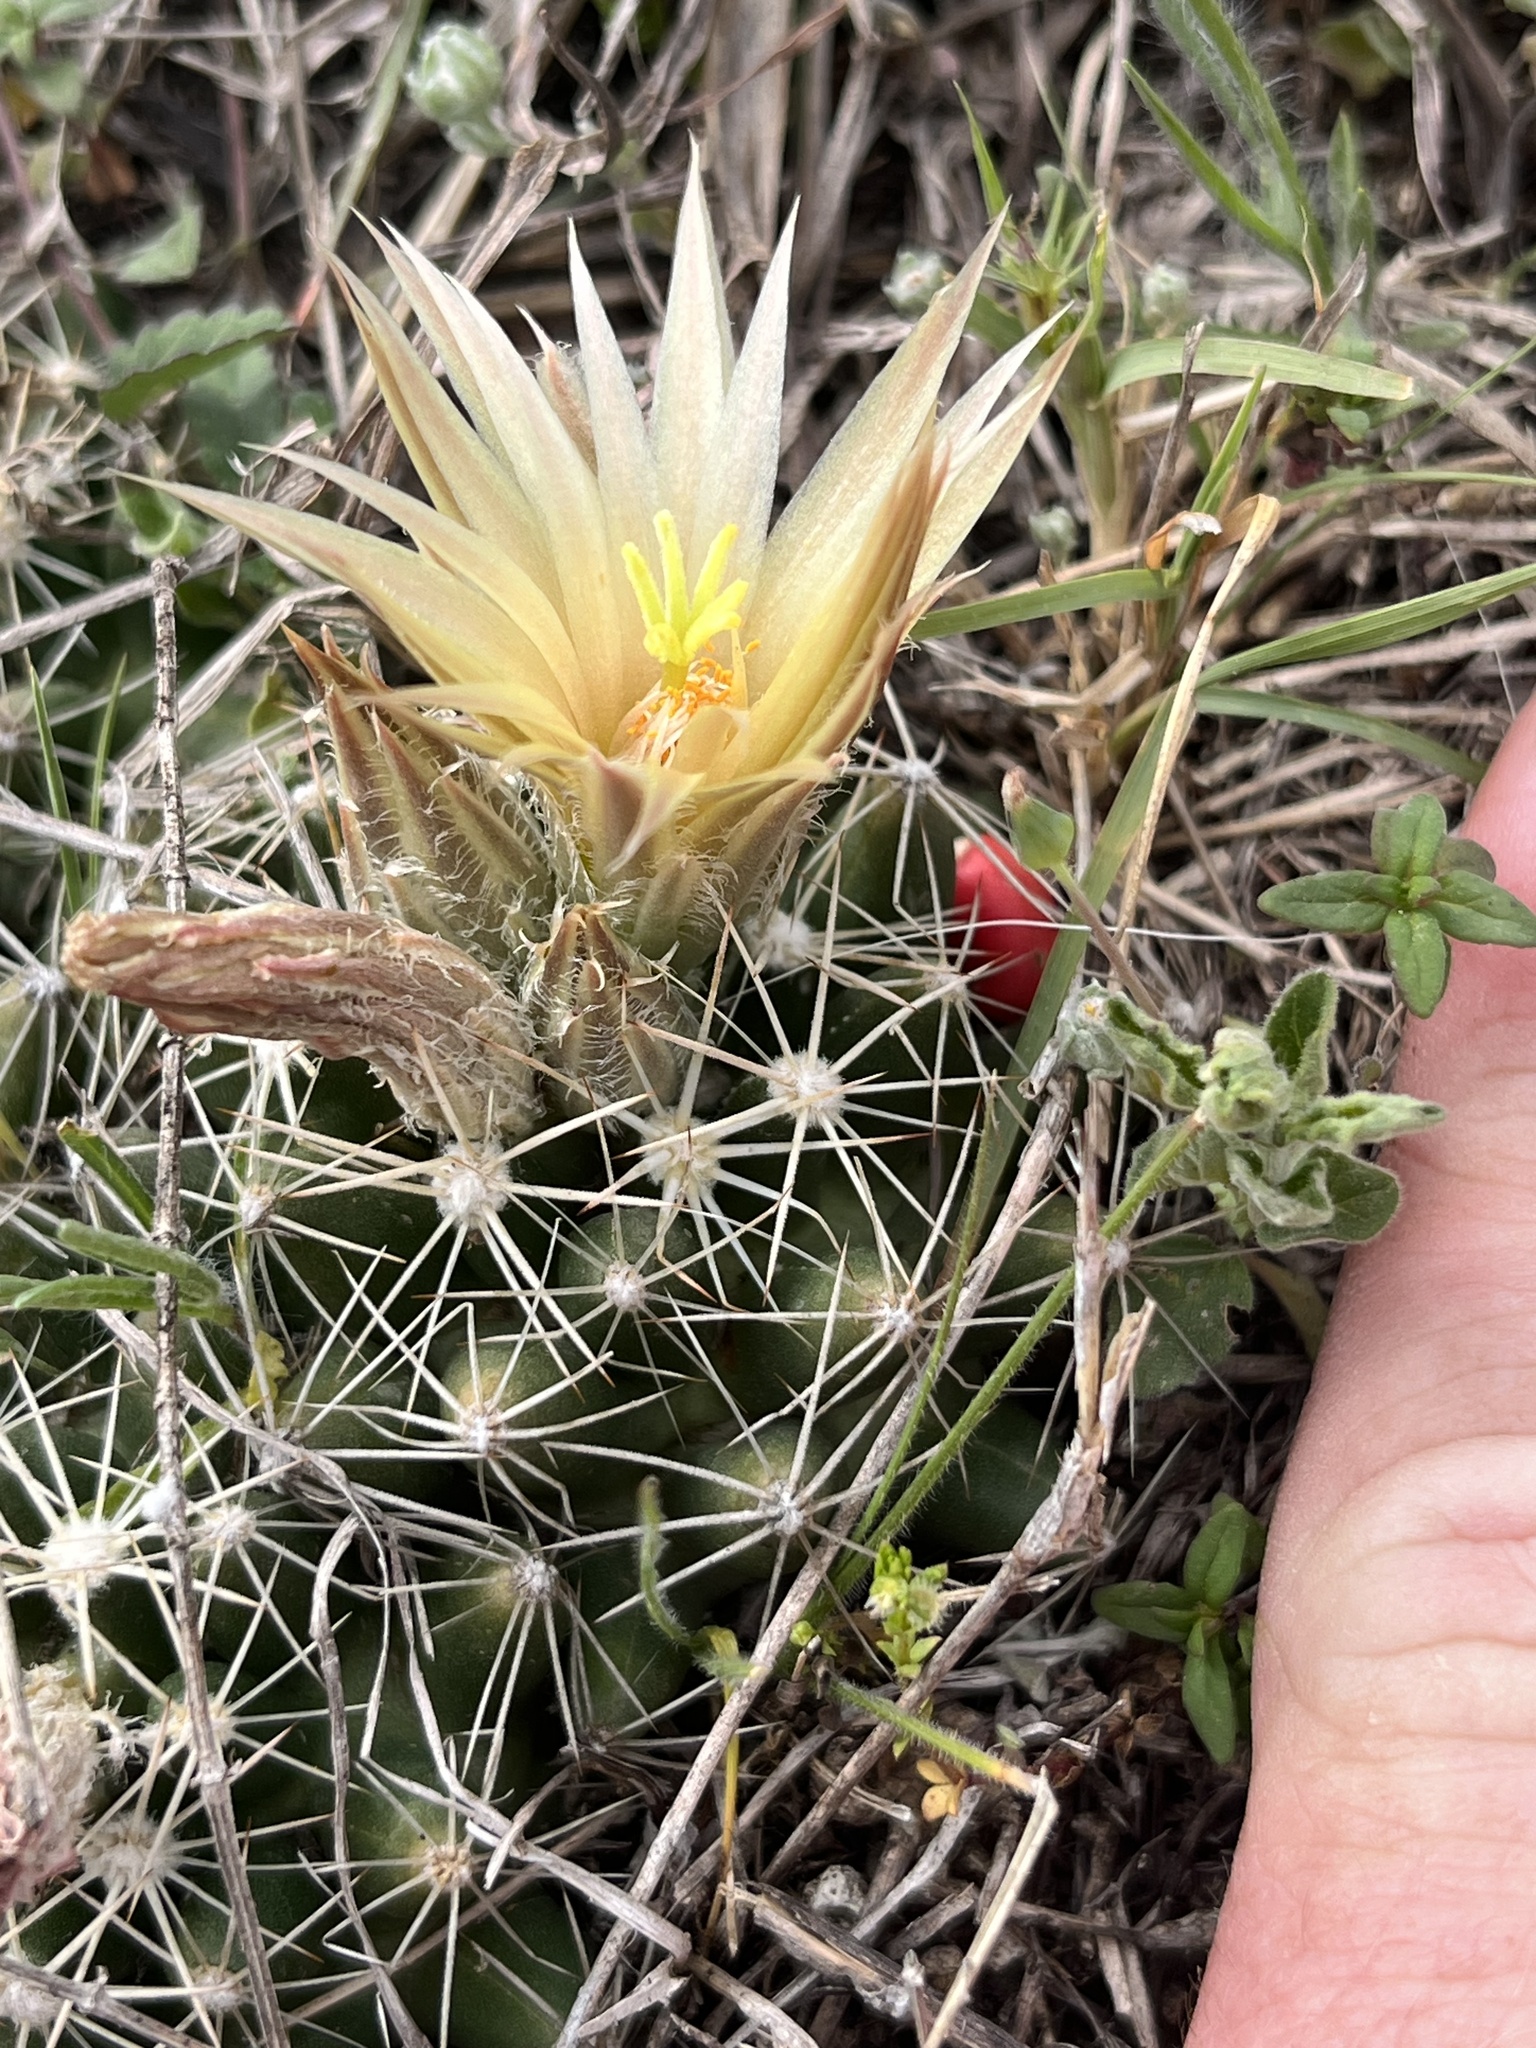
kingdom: Plantae
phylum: Tracheophyta
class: Magnoliopsida
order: Caryophyllales
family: Cactaceae
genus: Pelecyphora
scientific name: Pelecyphora missouriensis
